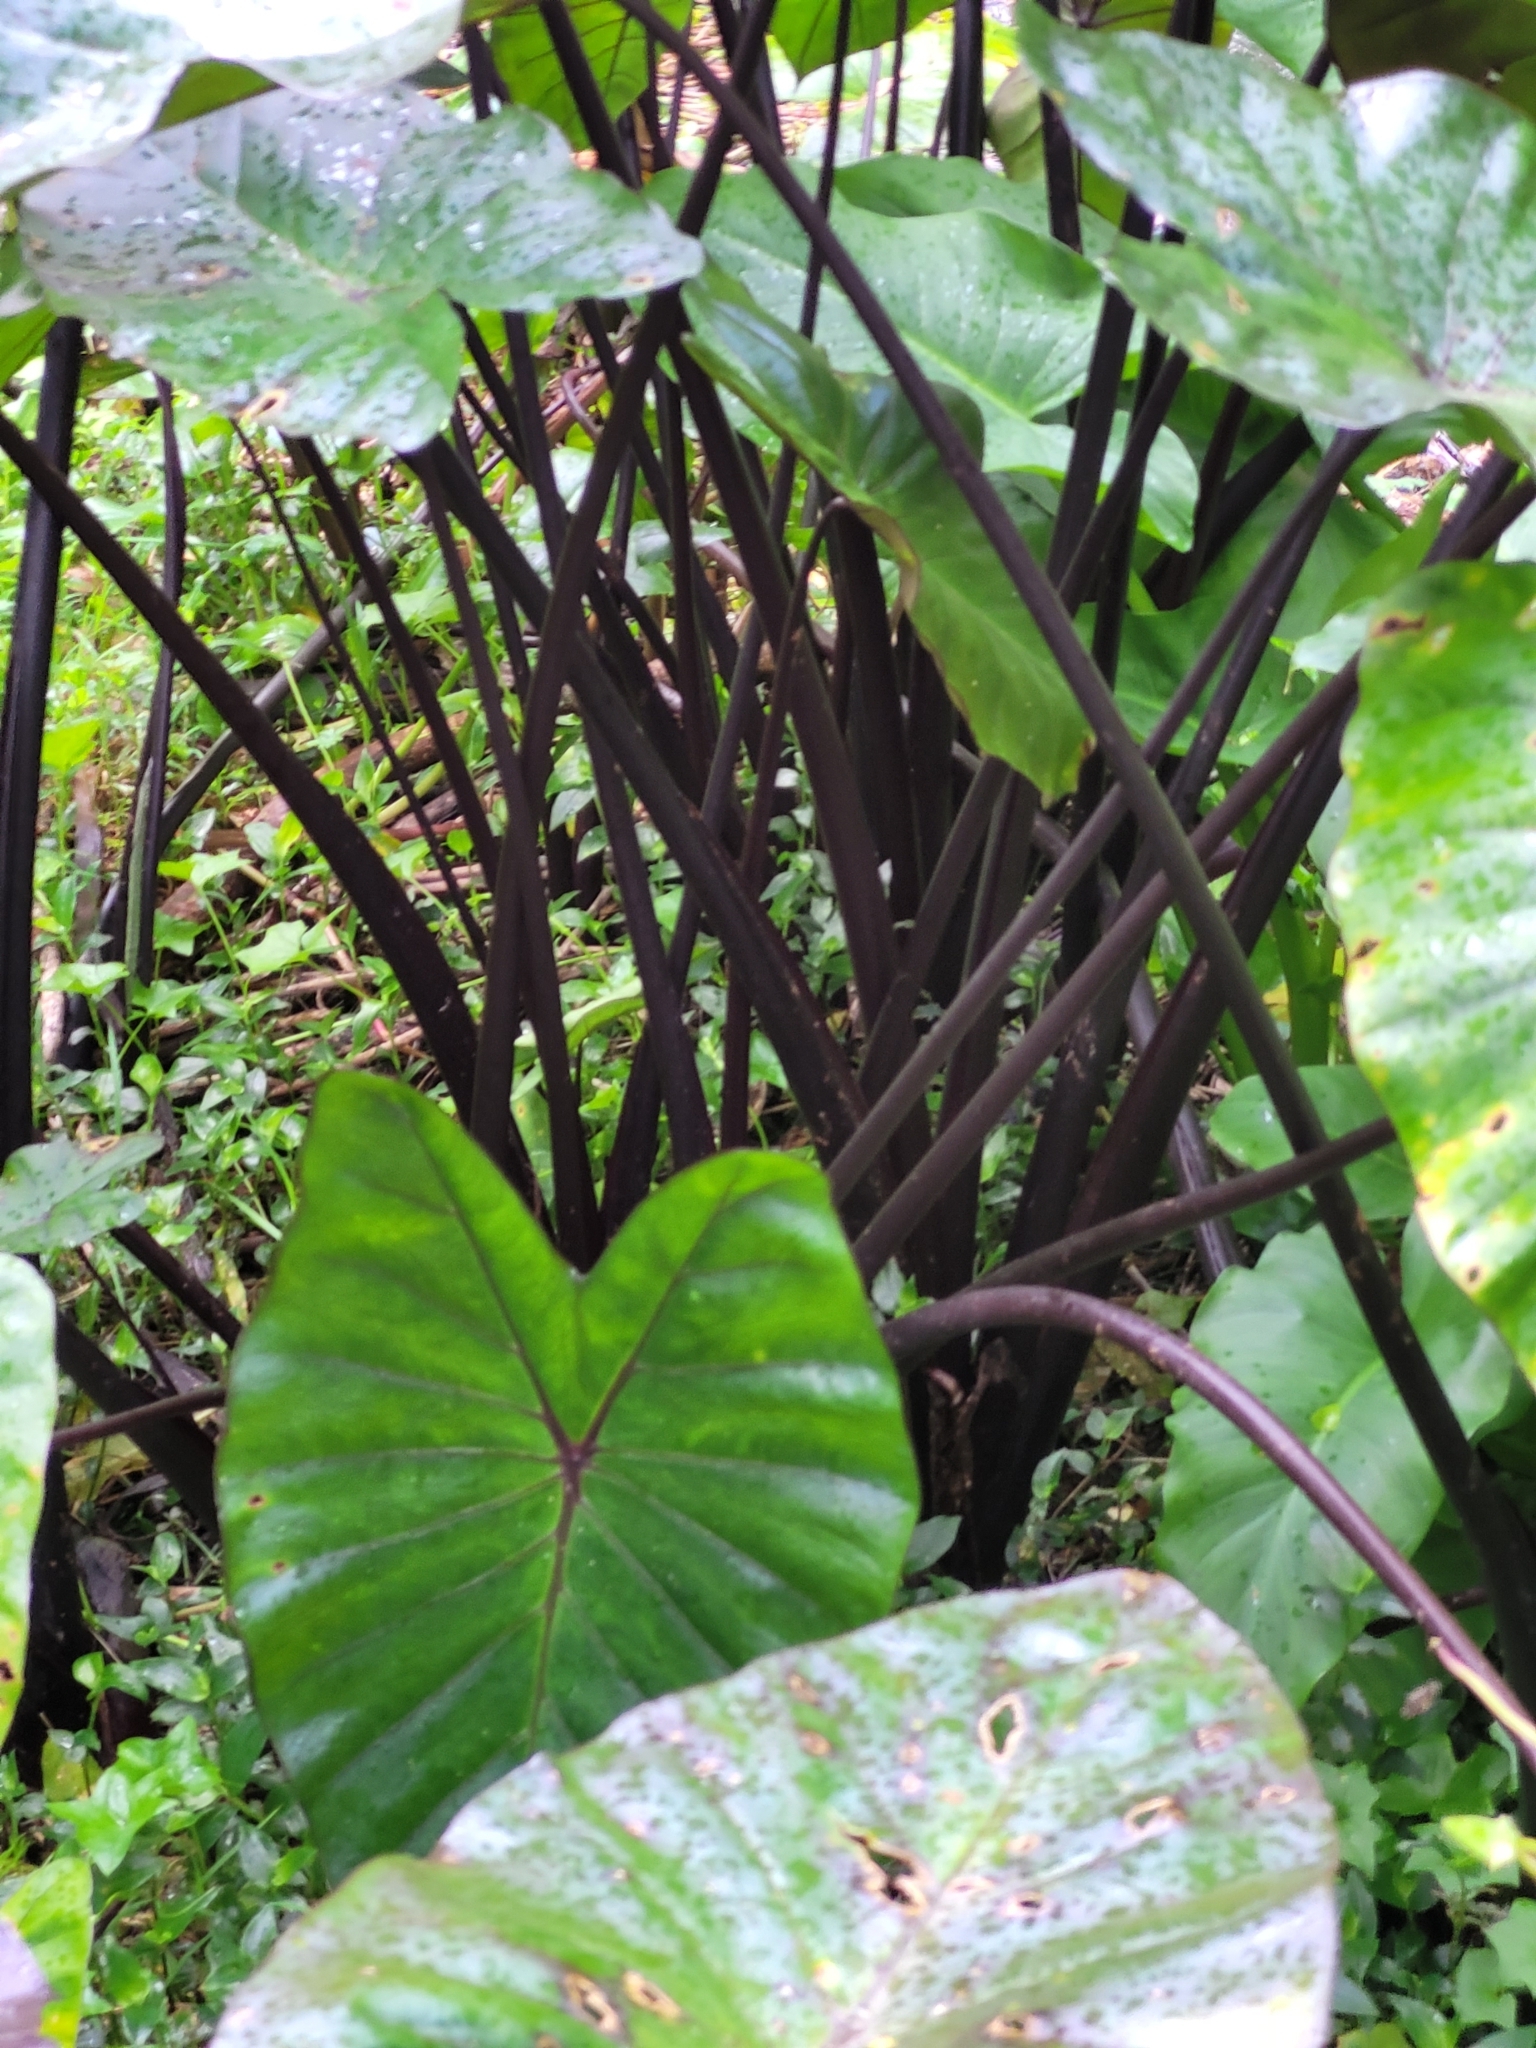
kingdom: Plantae
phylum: Tracheophyta
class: Liliopsida
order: Alismatales
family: Araceae
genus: Colocasia
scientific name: Colocasia fontanesii
